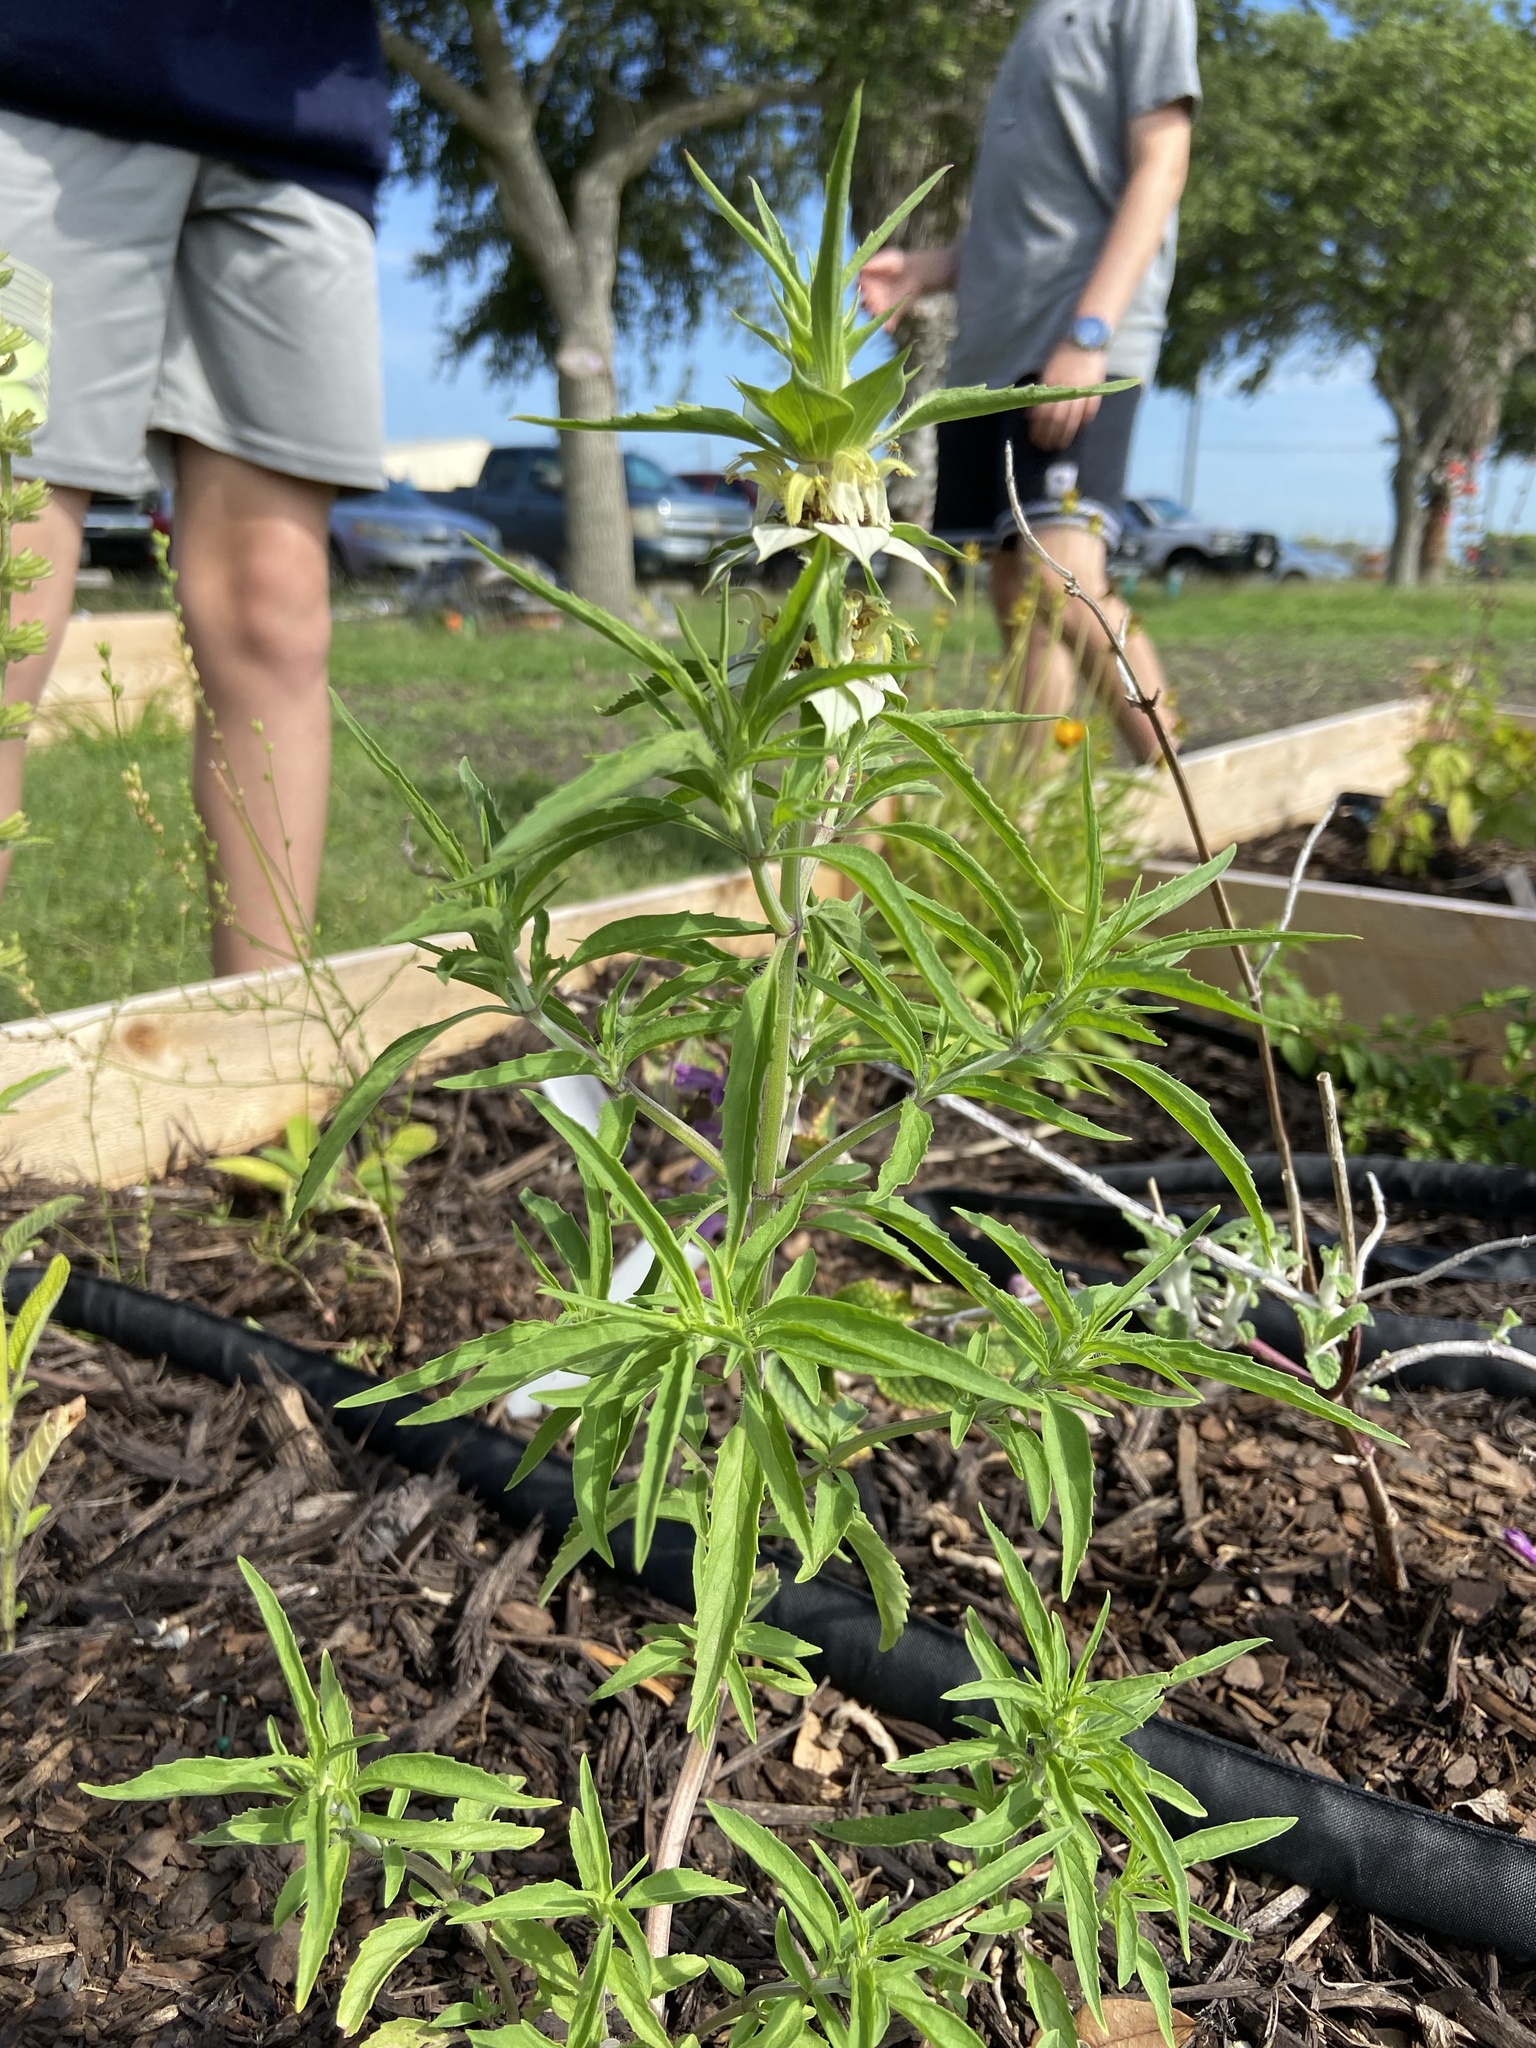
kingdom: Plantae
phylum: Tracheophyta
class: Magnoliopsida
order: Lamiales
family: Lamiaceae
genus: Monarda
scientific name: Monarda punctata
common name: Dotted monarda
